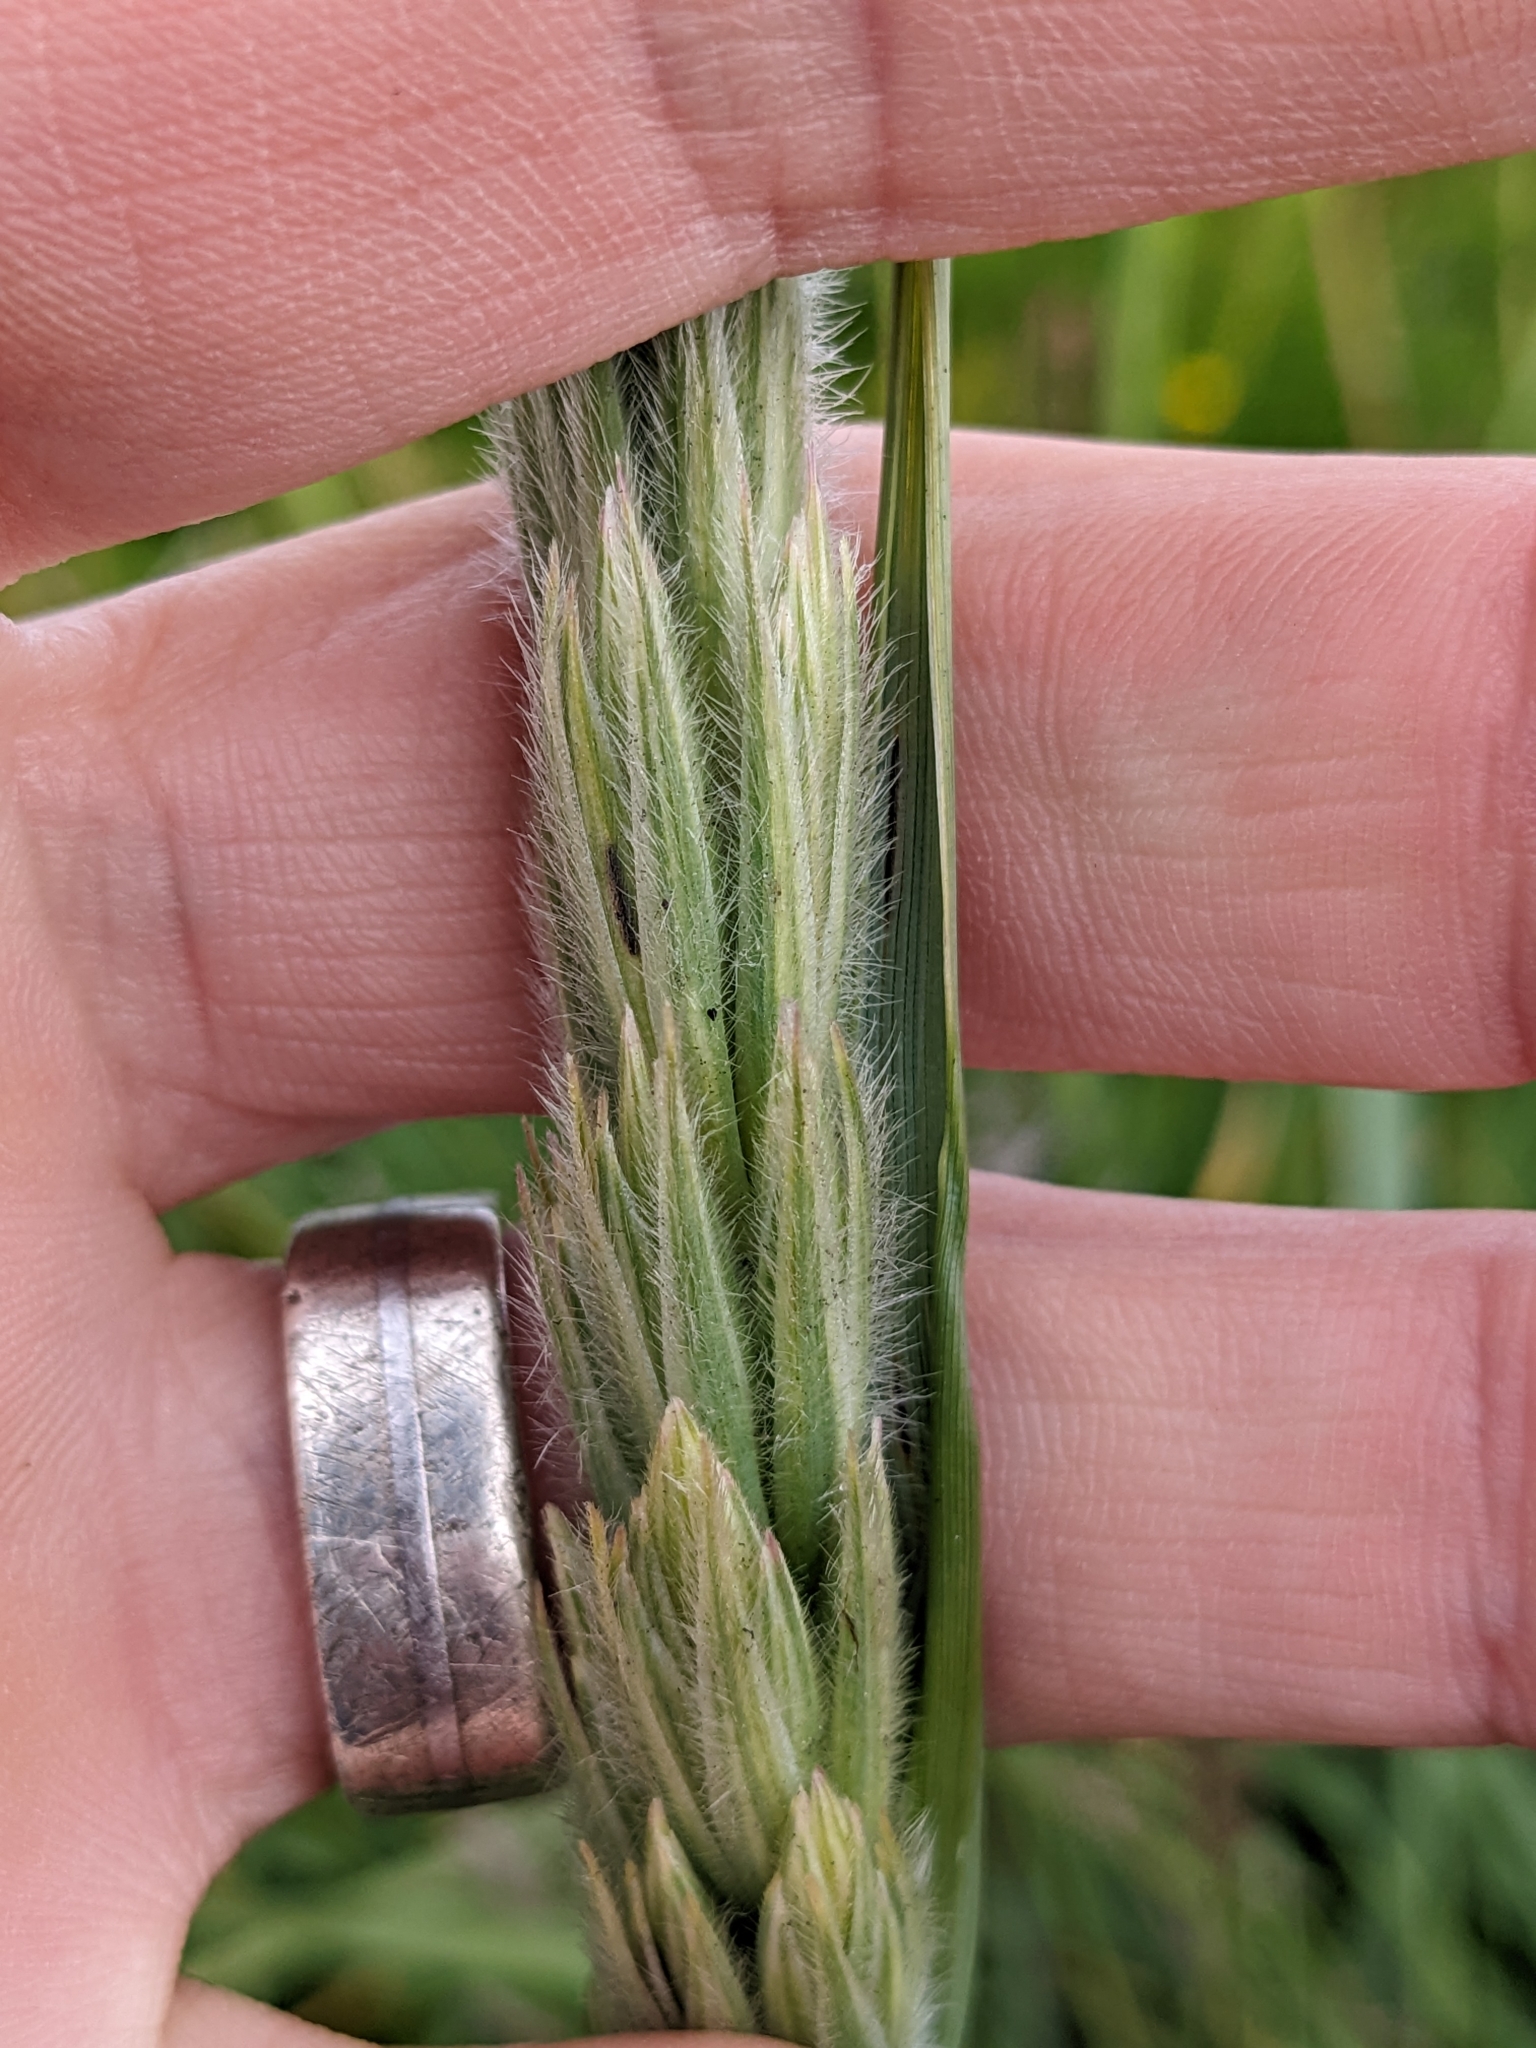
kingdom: Plantae
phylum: Tracheophyta
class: Liliopsida
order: Poales
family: Poaceae
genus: Leymus
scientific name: Leymus arenarius
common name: Lyme-grass
